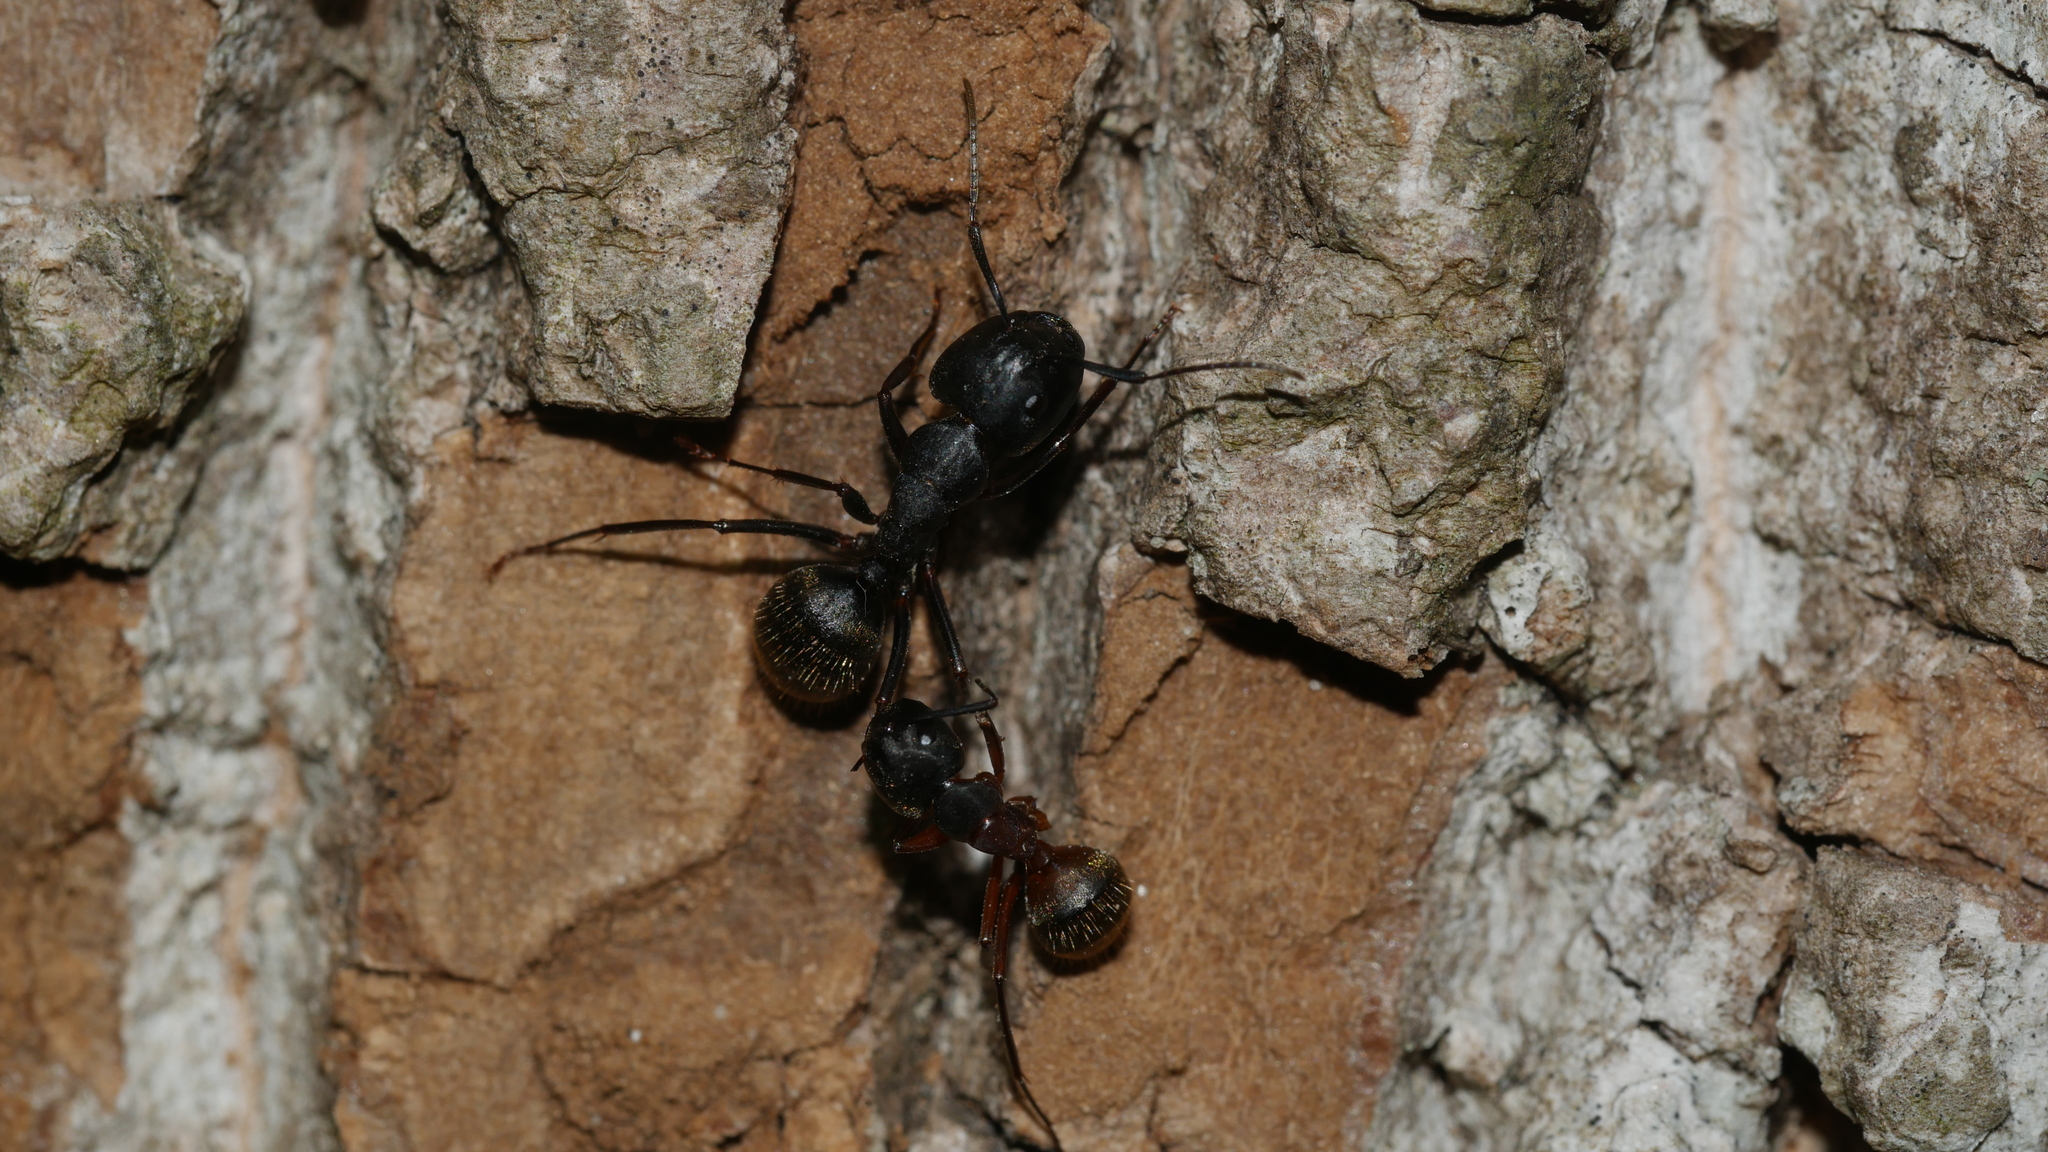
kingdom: Animalia
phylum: Arthropoda
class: Insecta
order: Hymenoptera
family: Formicidae
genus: Camponotus
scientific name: Camponotus chromaiodes
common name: Red carpenter ant
